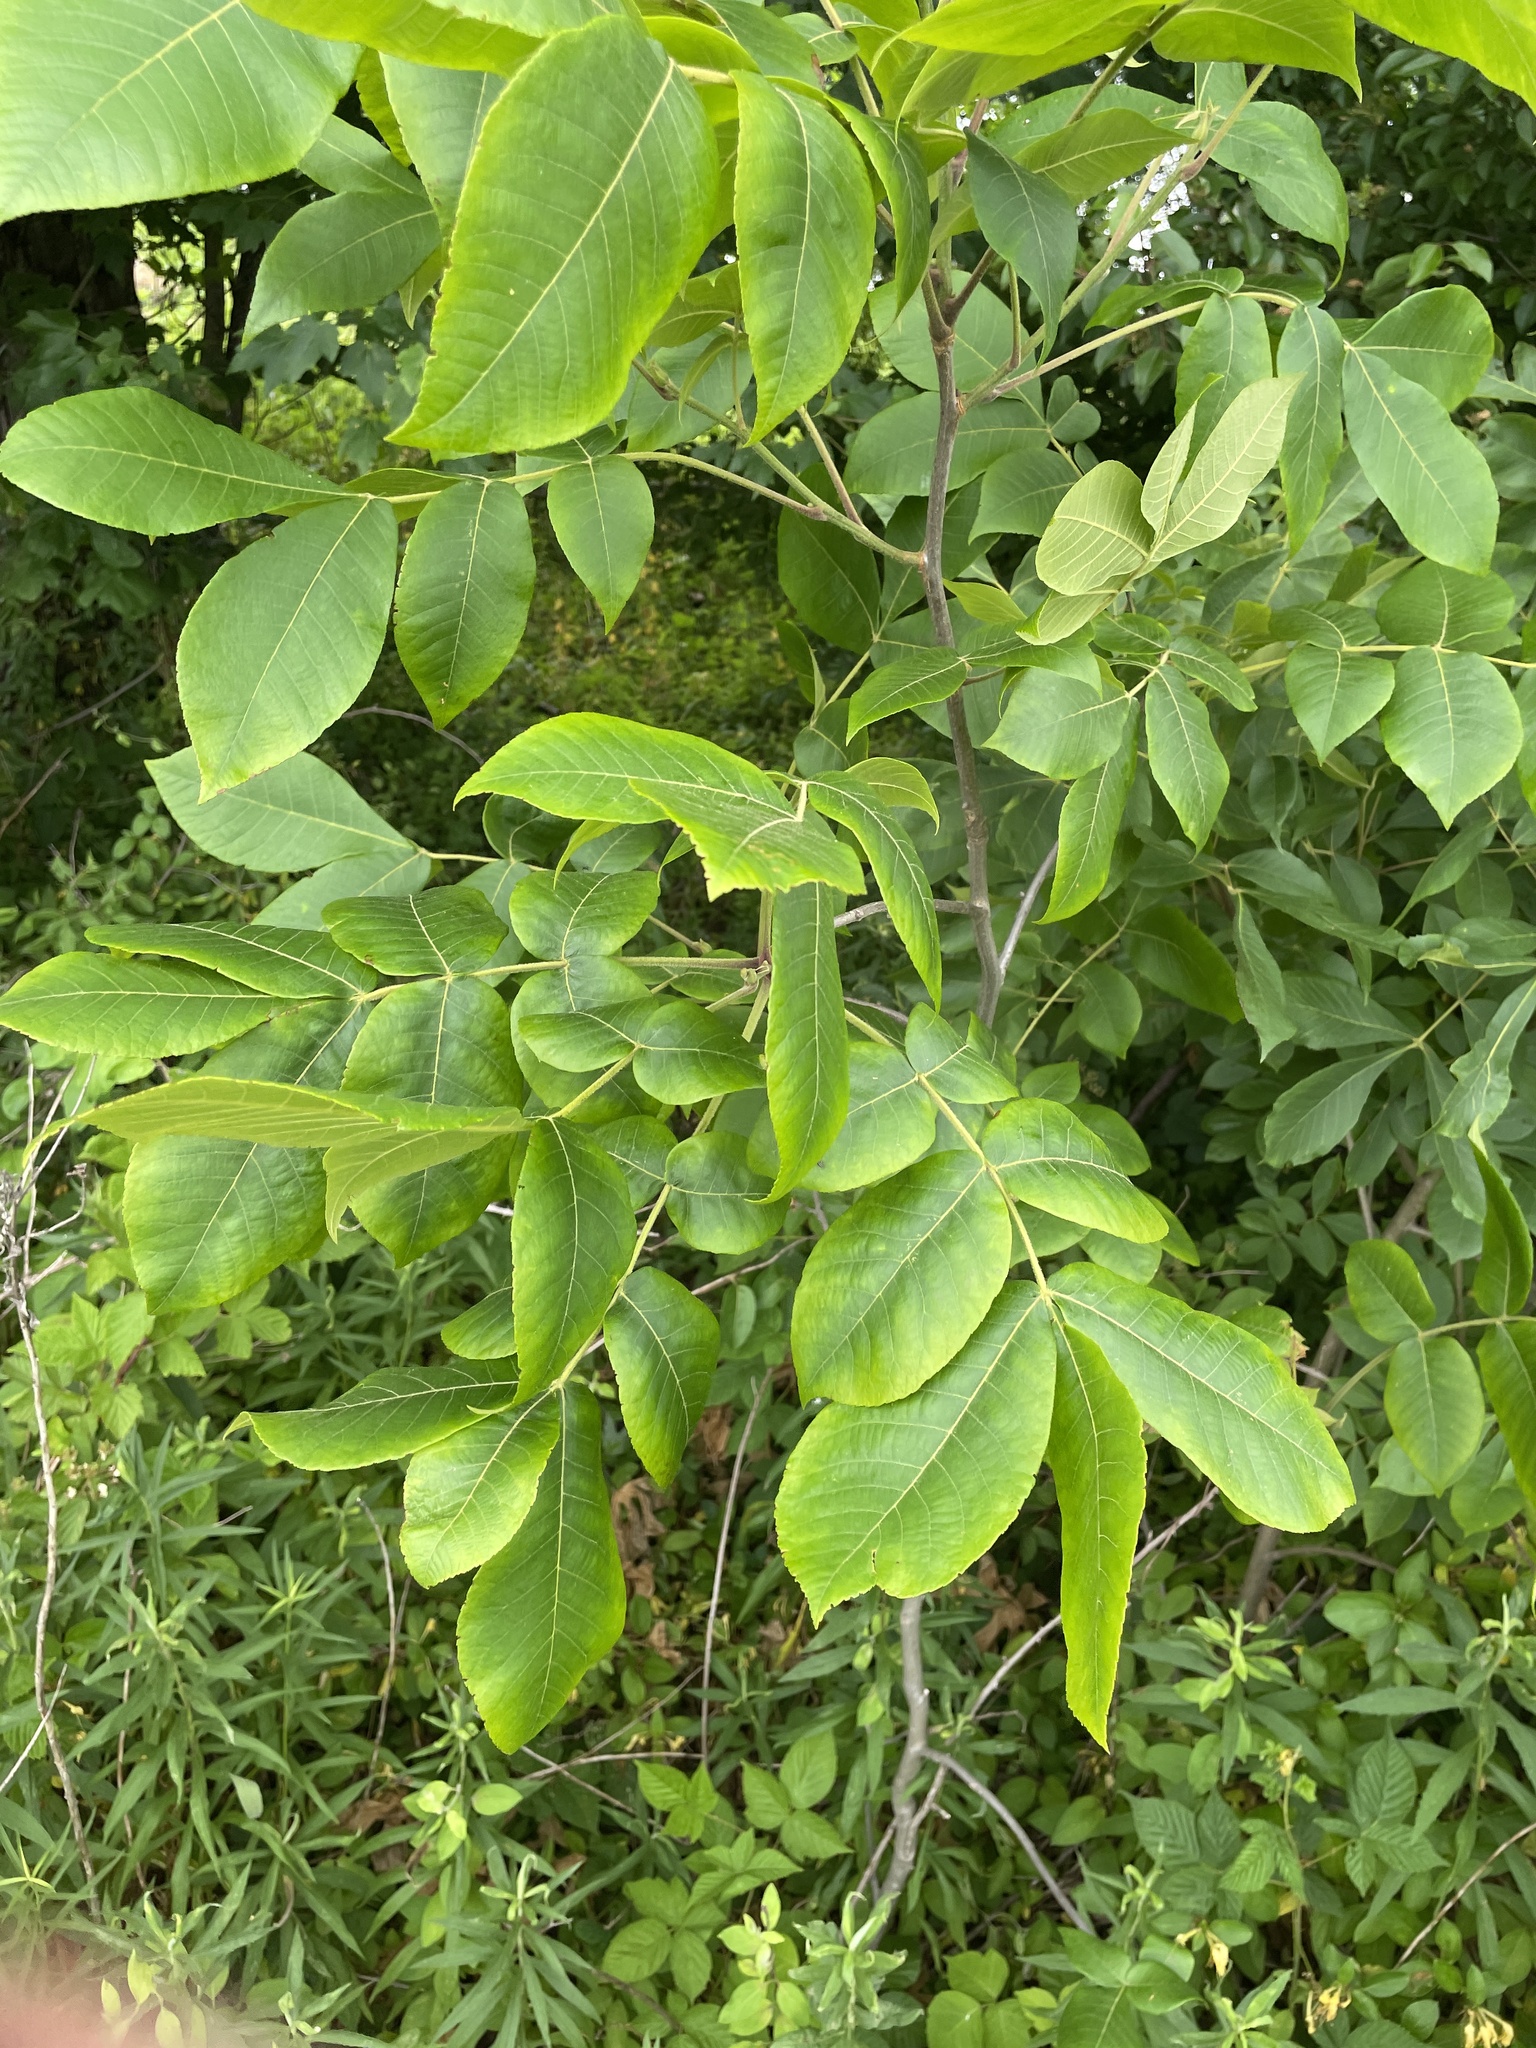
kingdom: Plantae
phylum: Tracheophyta
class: Magnoliopsida
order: Fagales
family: Juglandaceae
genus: Carya
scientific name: Carya alba
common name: Mockernut hickory
